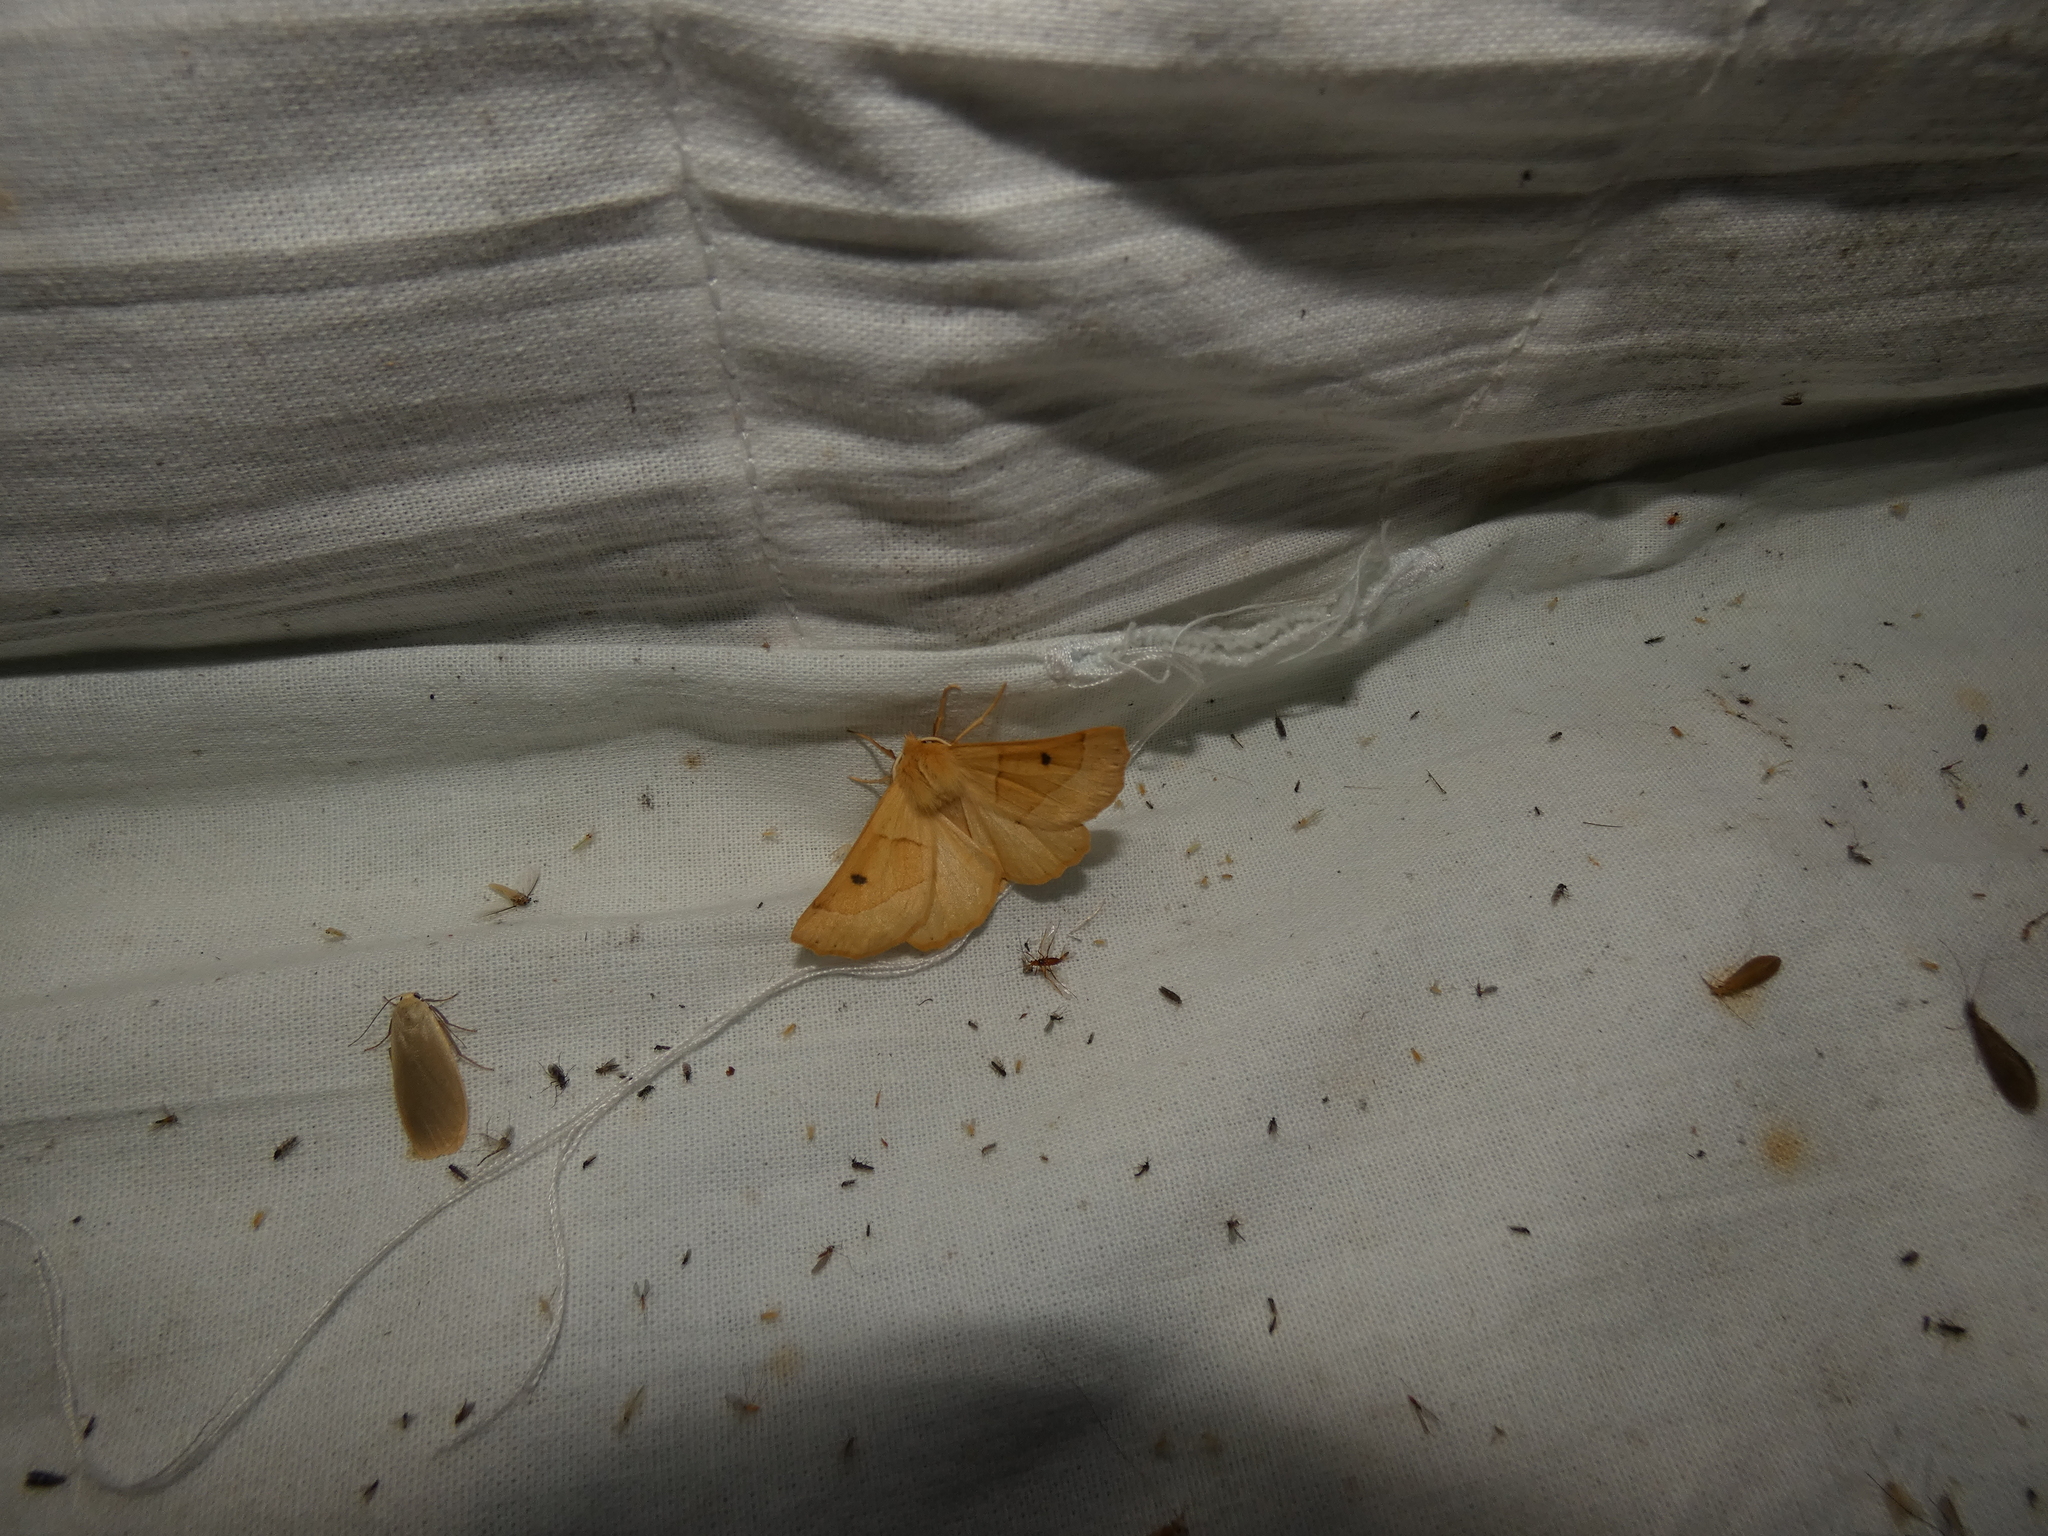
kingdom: Animalia
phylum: Arthropoda
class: Insecta
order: Lepidoptera
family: Geometridae
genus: Crocallis
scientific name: Crocallis elinguaria
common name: Scalloped oak
